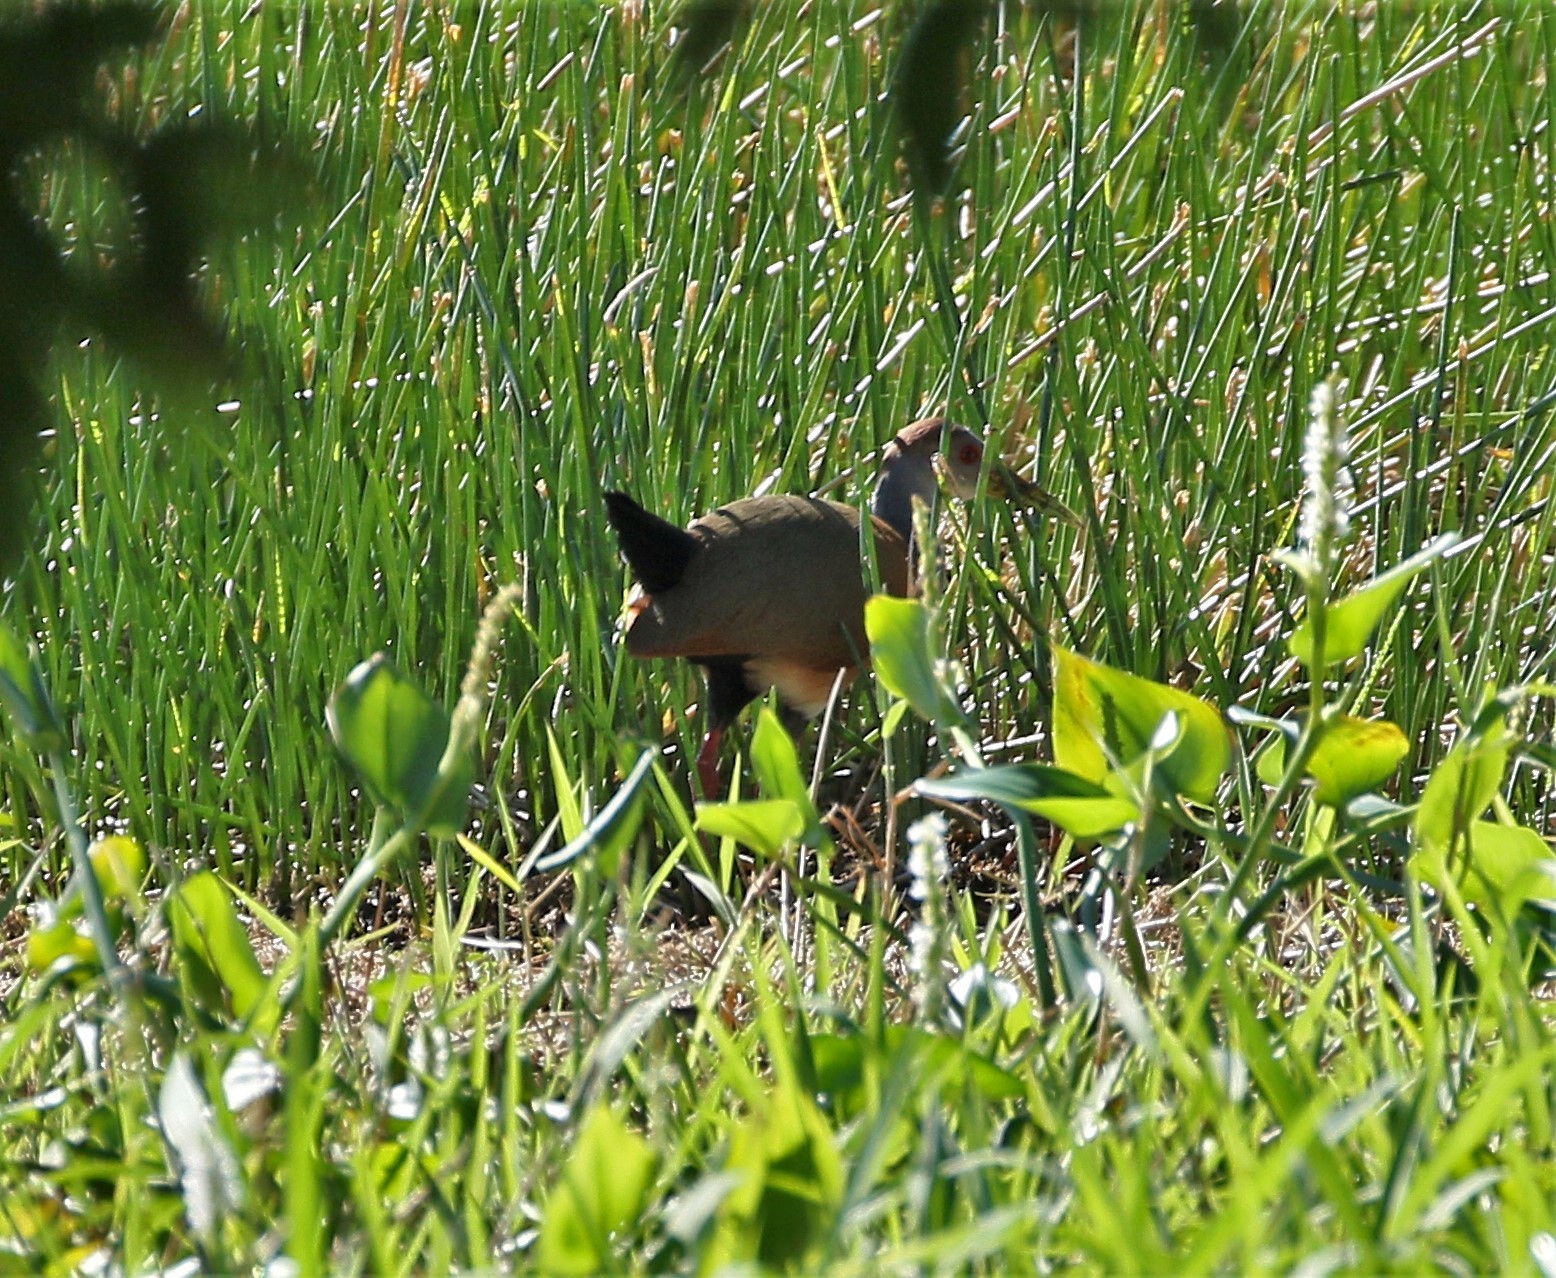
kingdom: Animalia
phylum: Chordata
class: Aves
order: Gruiformes
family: Rallidae
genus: Aramides
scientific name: Aramides albiventris
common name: Russet-naped wood-rail
